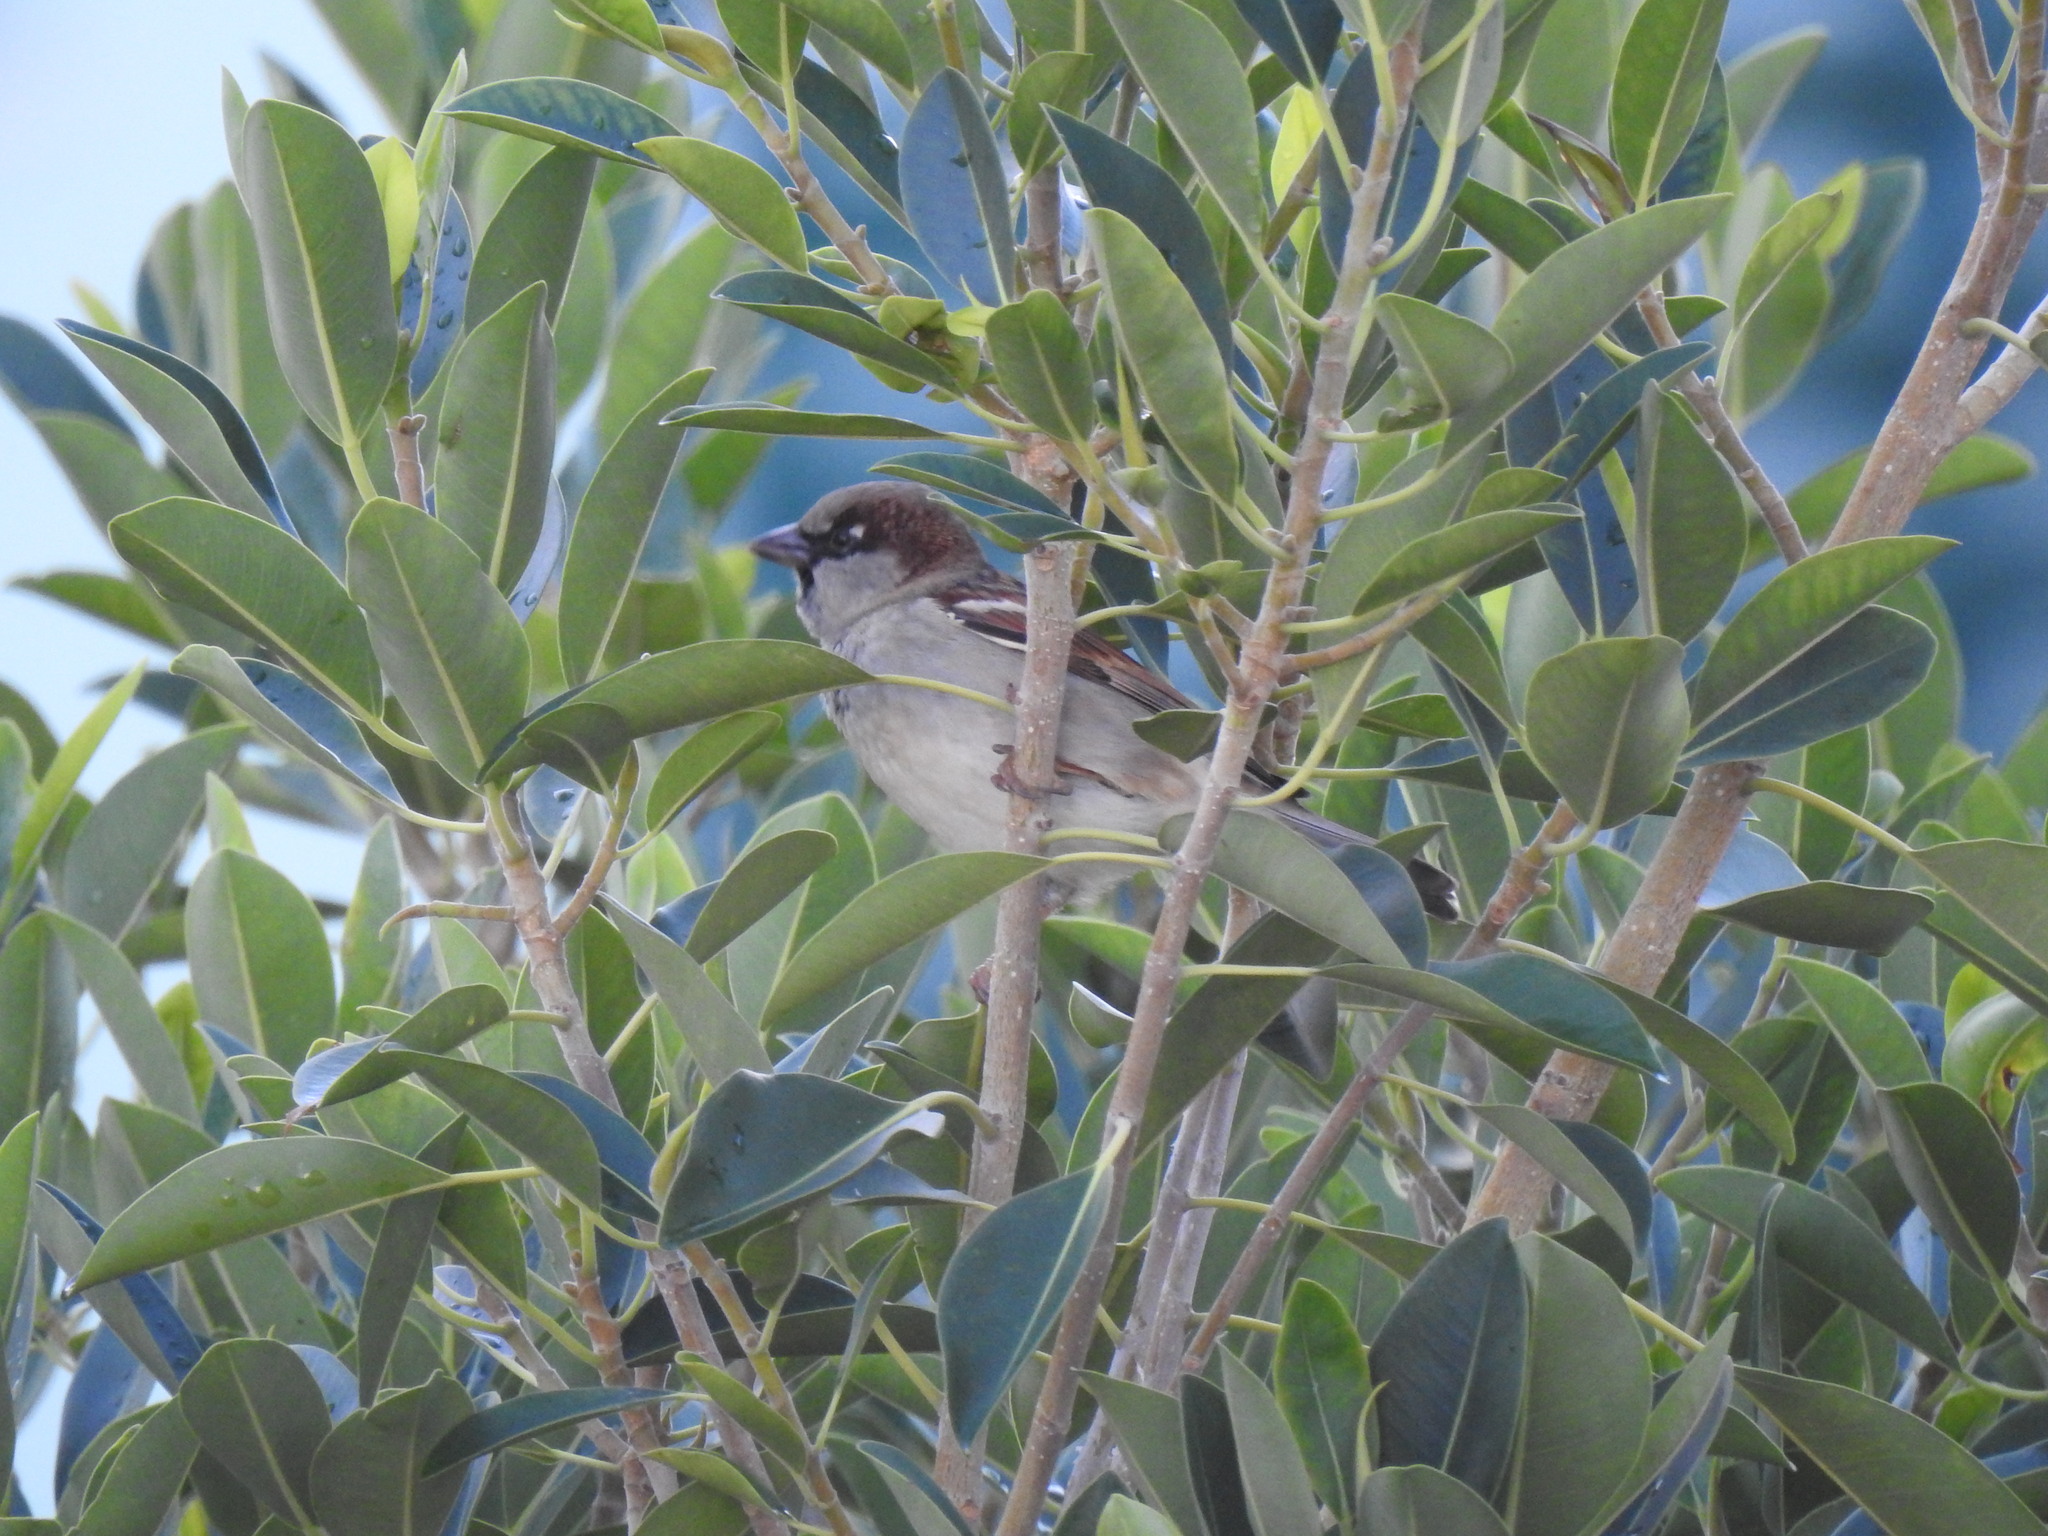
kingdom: Animalia
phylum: Chordata
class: Aves
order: Passeriformes
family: Passeridae
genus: Passer
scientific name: Passer domesticus
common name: House sparrow
